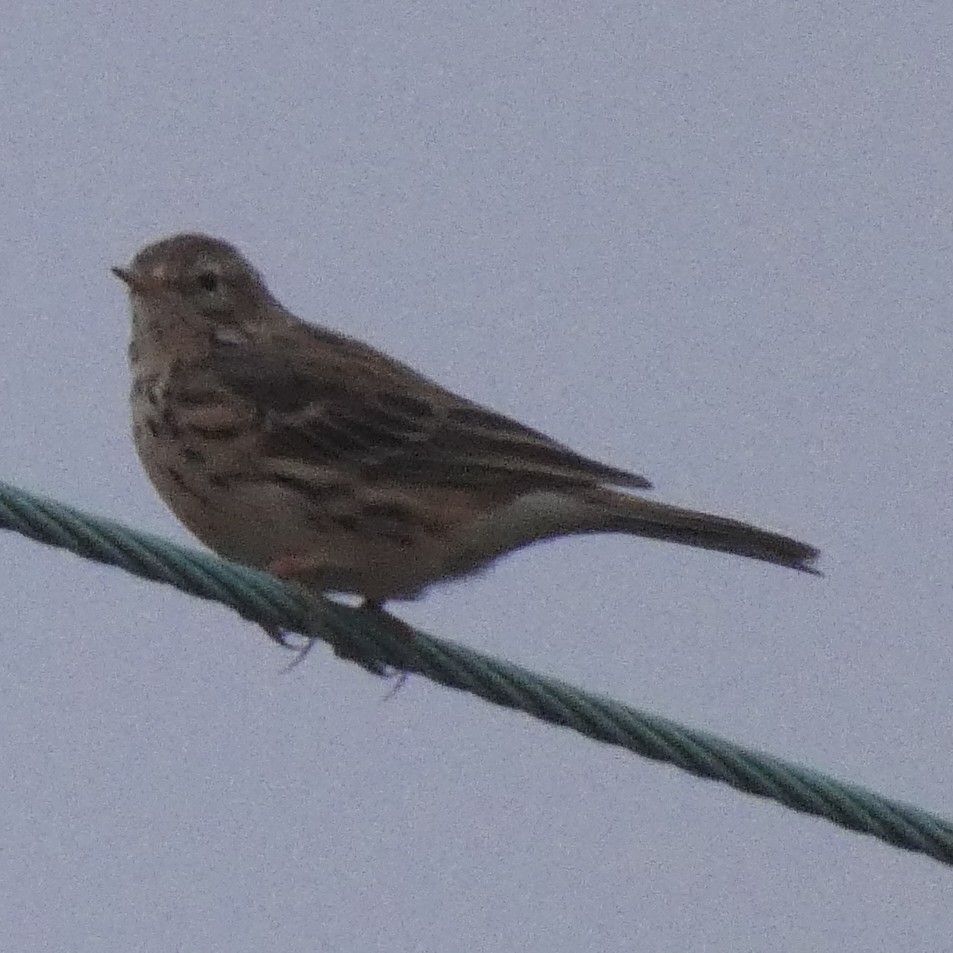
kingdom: Animalia
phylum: Chordata
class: Aves
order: Passeriformes
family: Motacillidae
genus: Anthus
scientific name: Anthus pratensis
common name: Meadow pipit
